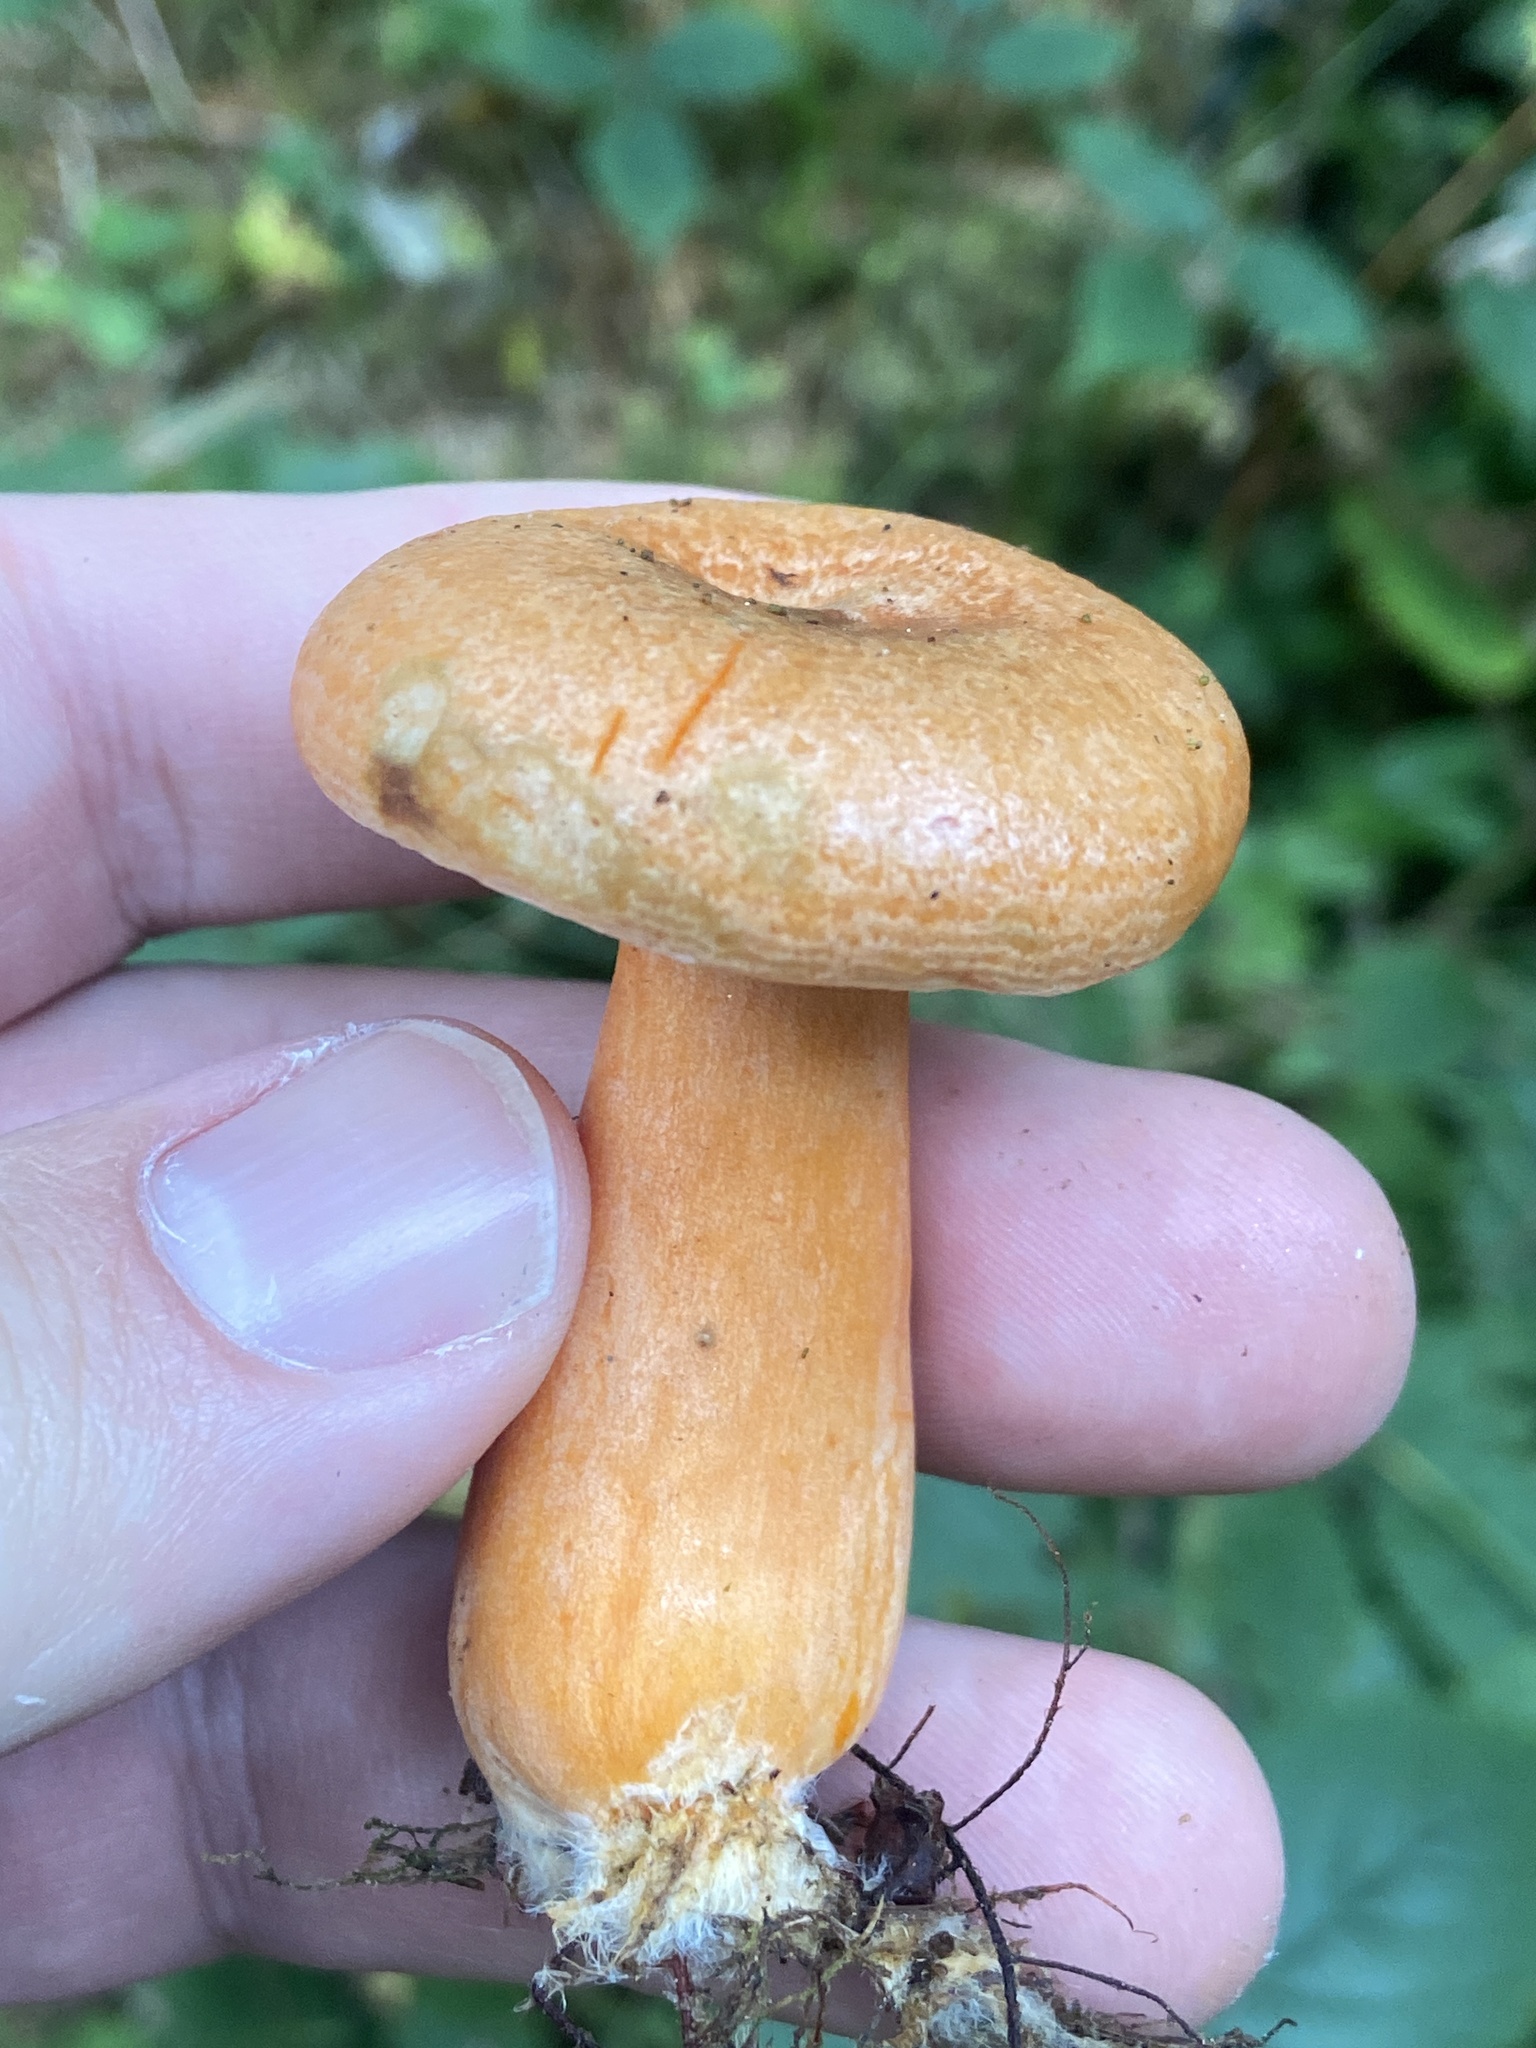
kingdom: Fungi
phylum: Basidiomycota
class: Agaricomycetes
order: Russulales
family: Russulaceae
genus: Lactarius
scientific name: Lactarius deterrimus
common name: False saffron milkcap
